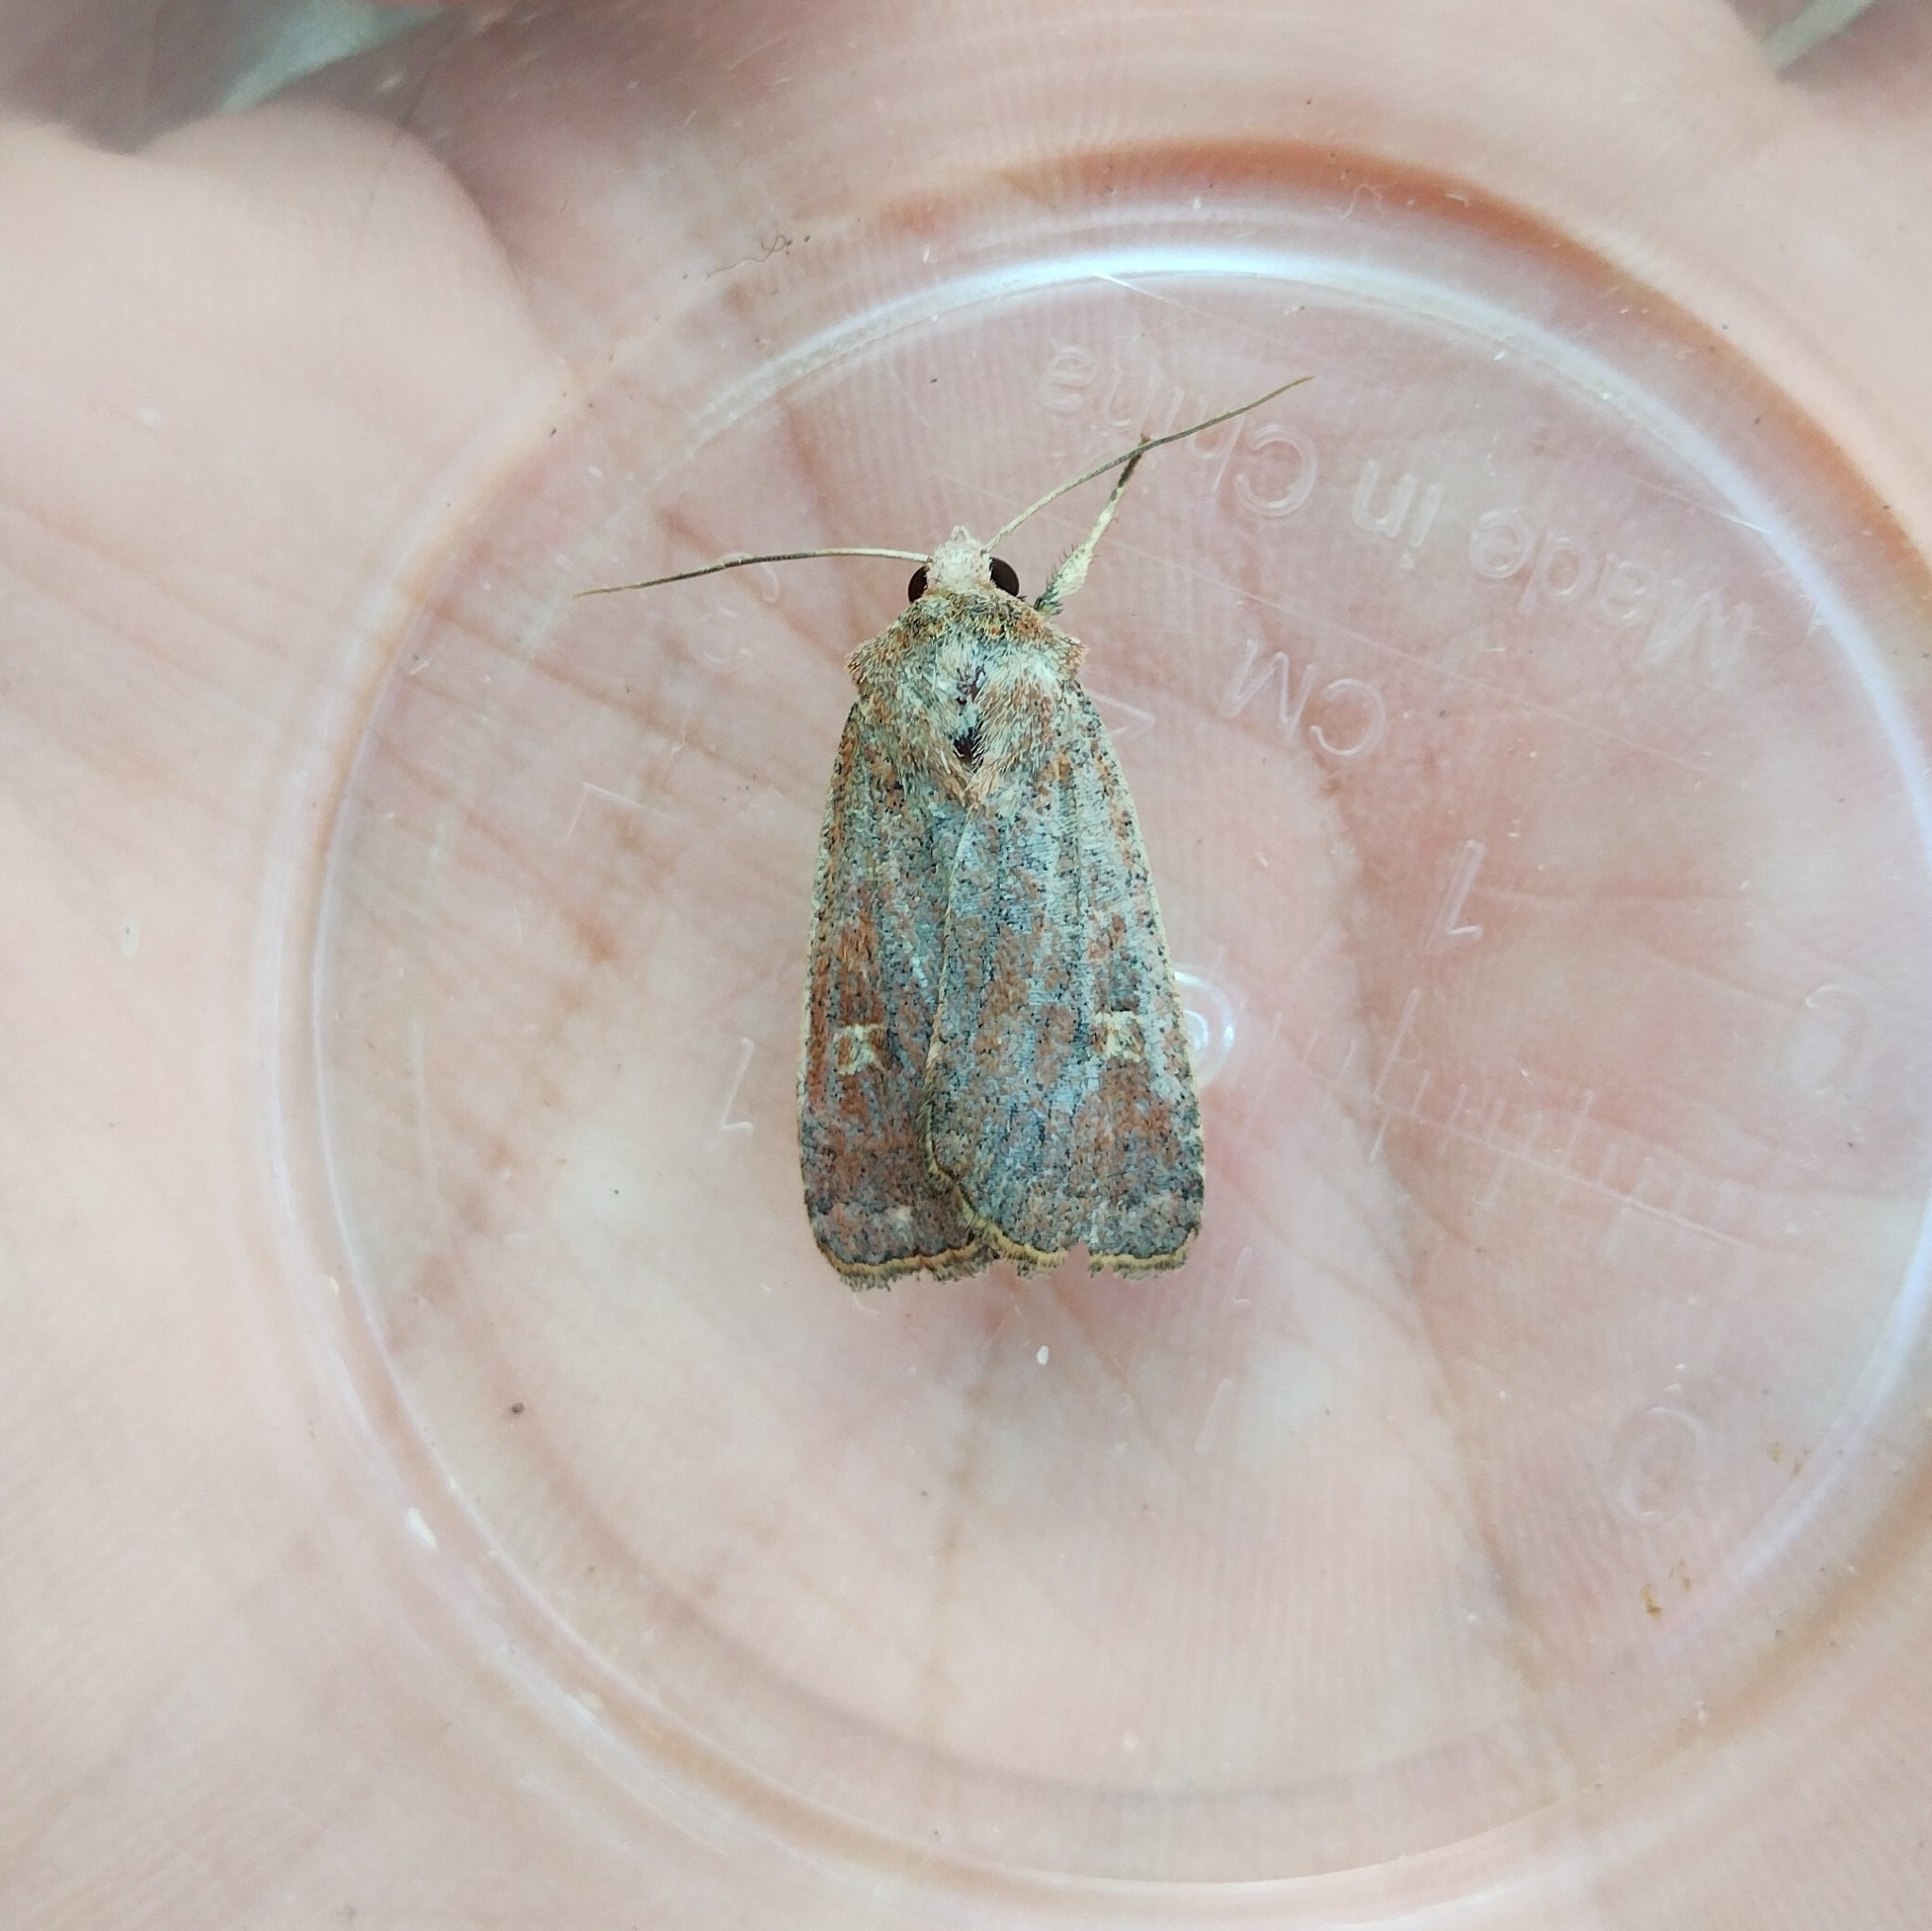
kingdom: Animalia
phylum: Arthropoda
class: Insecta
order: Lepidoptera
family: Noctuidae
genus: Xestia
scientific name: Xestia xanthographa
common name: Square-spot rustic
